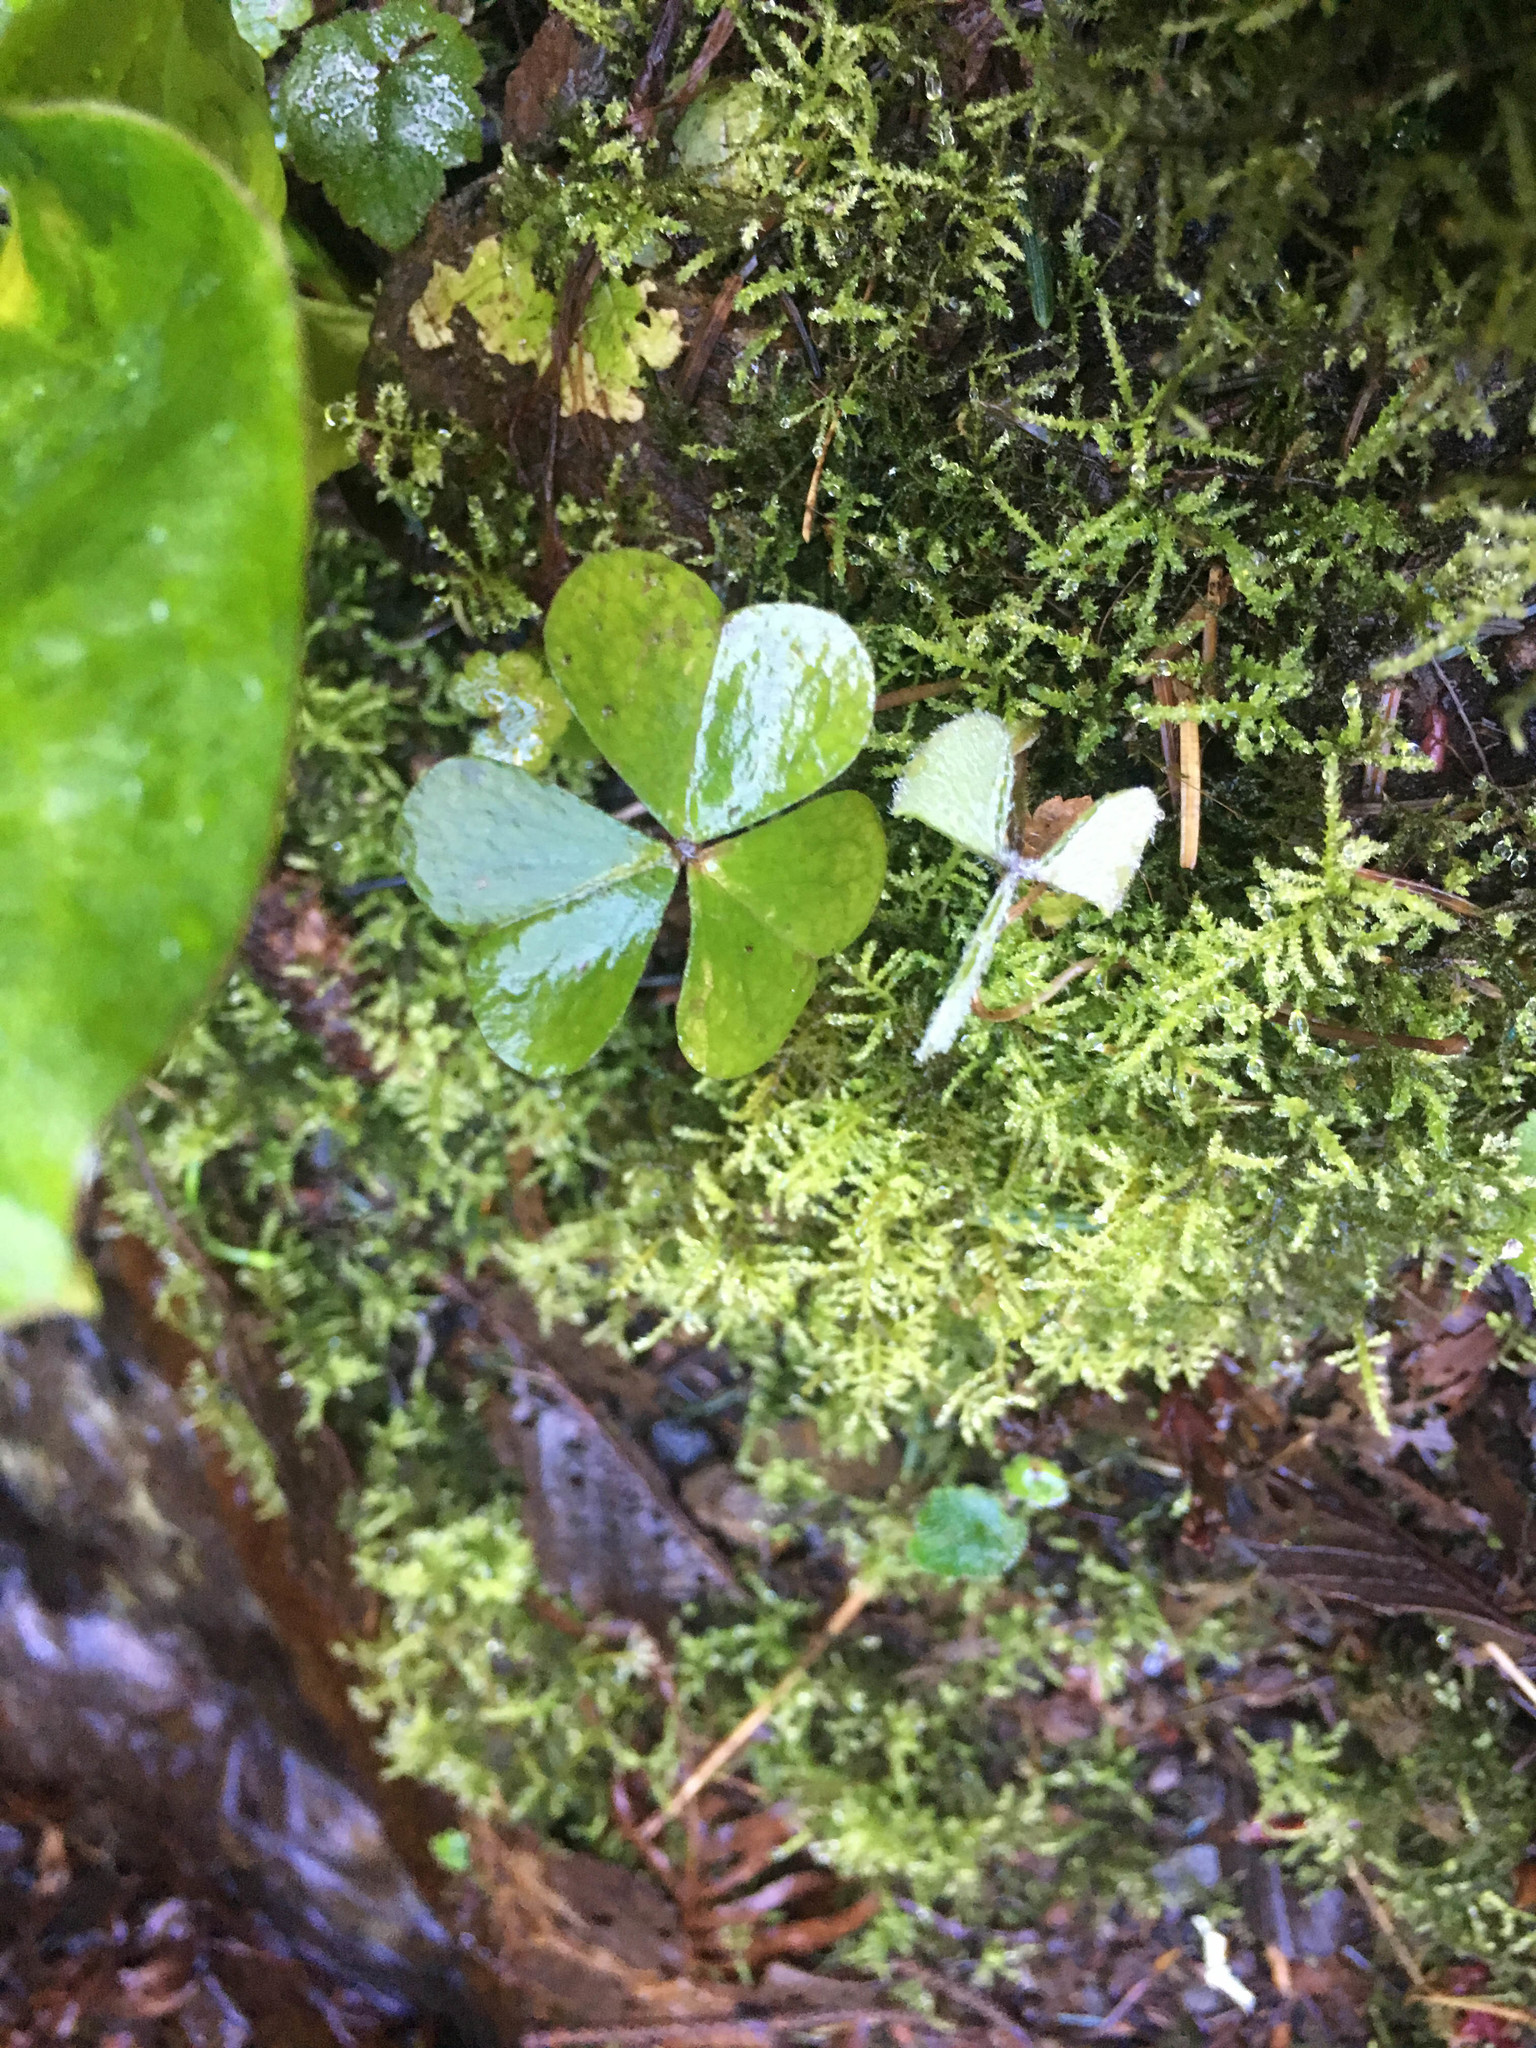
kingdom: Plantae
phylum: Tracheophyta
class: Magnoliopsida
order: Oxalidales
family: Oxalidaceae
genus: Oxalis
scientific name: Oxalis oregana
